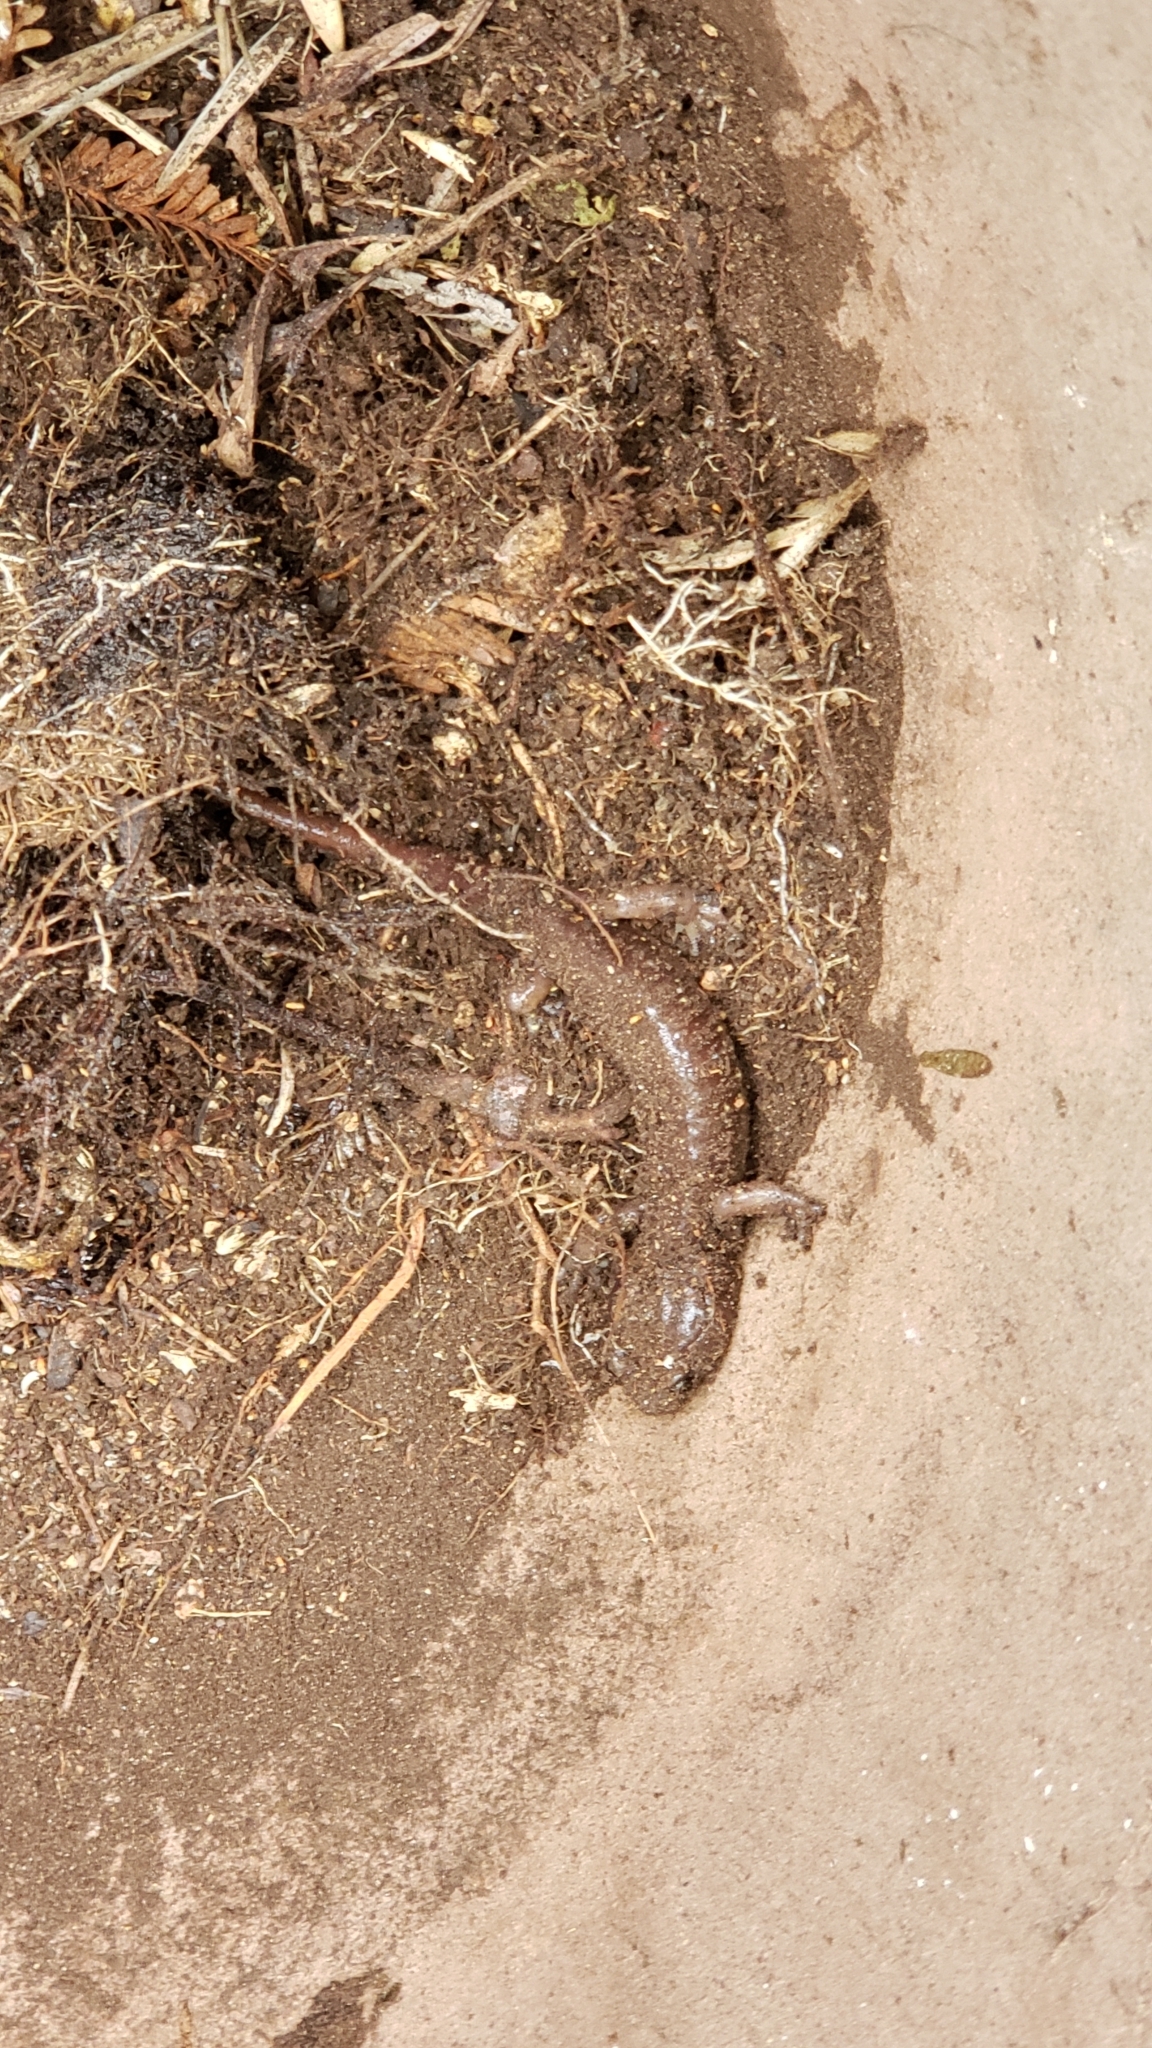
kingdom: Animalia
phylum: Chordata
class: Amphibia
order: Caudata
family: Plethodontidae
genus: Aneides
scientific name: Aneides lugubris
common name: Arboreal salamander
